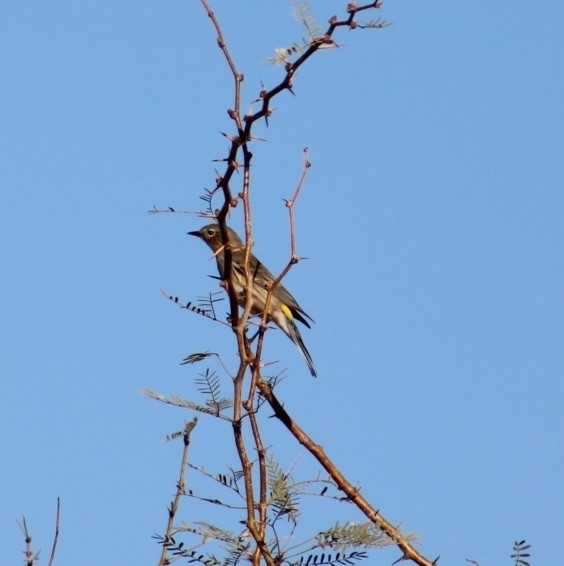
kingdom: Animalia
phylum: Chordata
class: Aves
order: Passeriformes
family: Parulidae
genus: Setophaga
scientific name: Setophaga coronata
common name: Myrtle warbler
